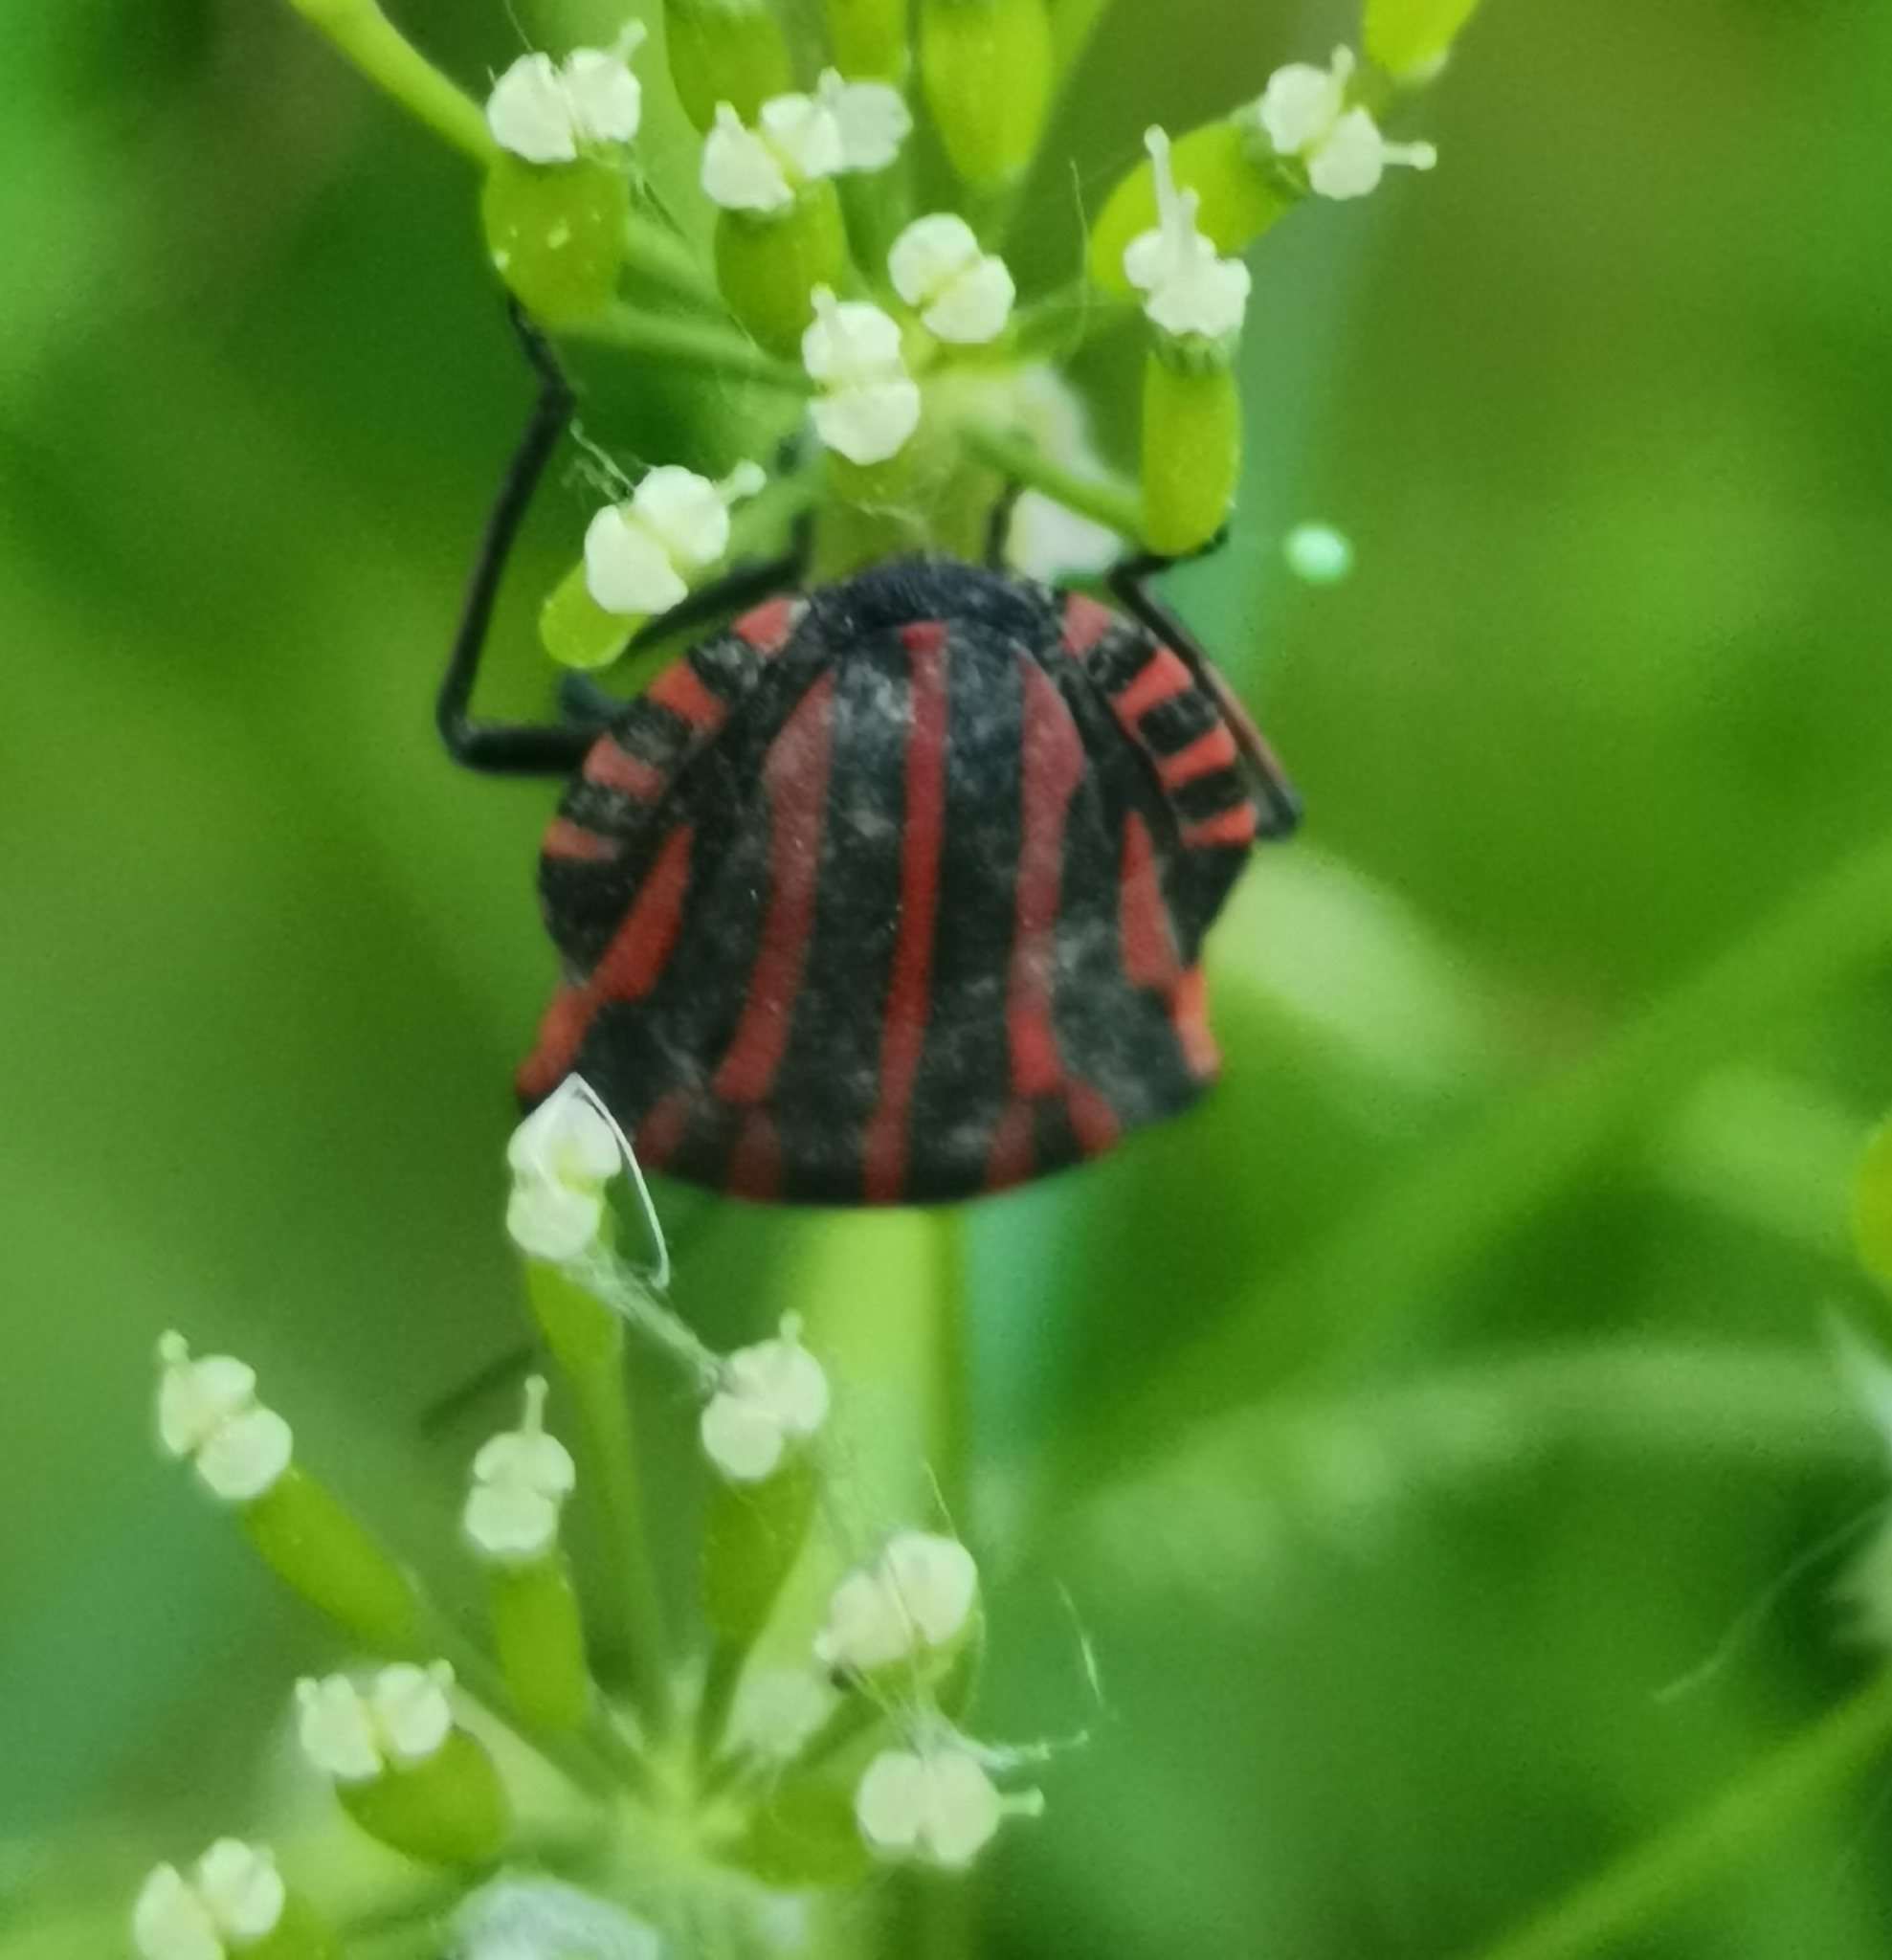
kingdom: Animalia
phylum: Arthropoda
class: Insecta
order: Hemiptera
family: Pentatomidae
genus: Graphosoma
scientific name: Graphosoma italicum
